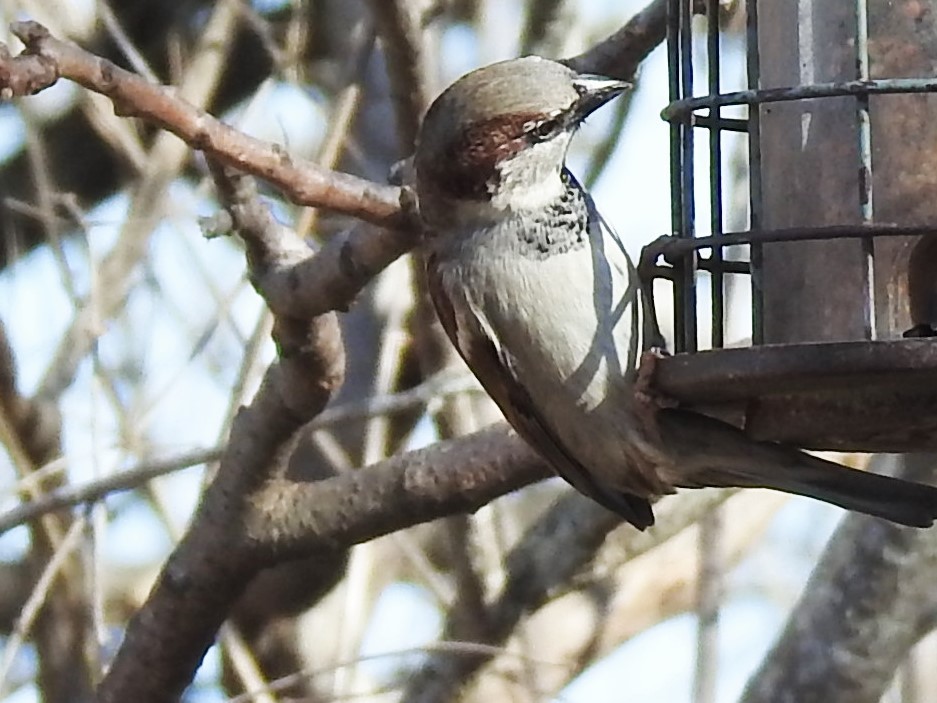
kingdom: Animalia
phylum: Chordata
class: Aves
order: Passeriformes
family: Passeridae
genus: Passer
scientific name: Passer domesticus
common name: House sparrow
